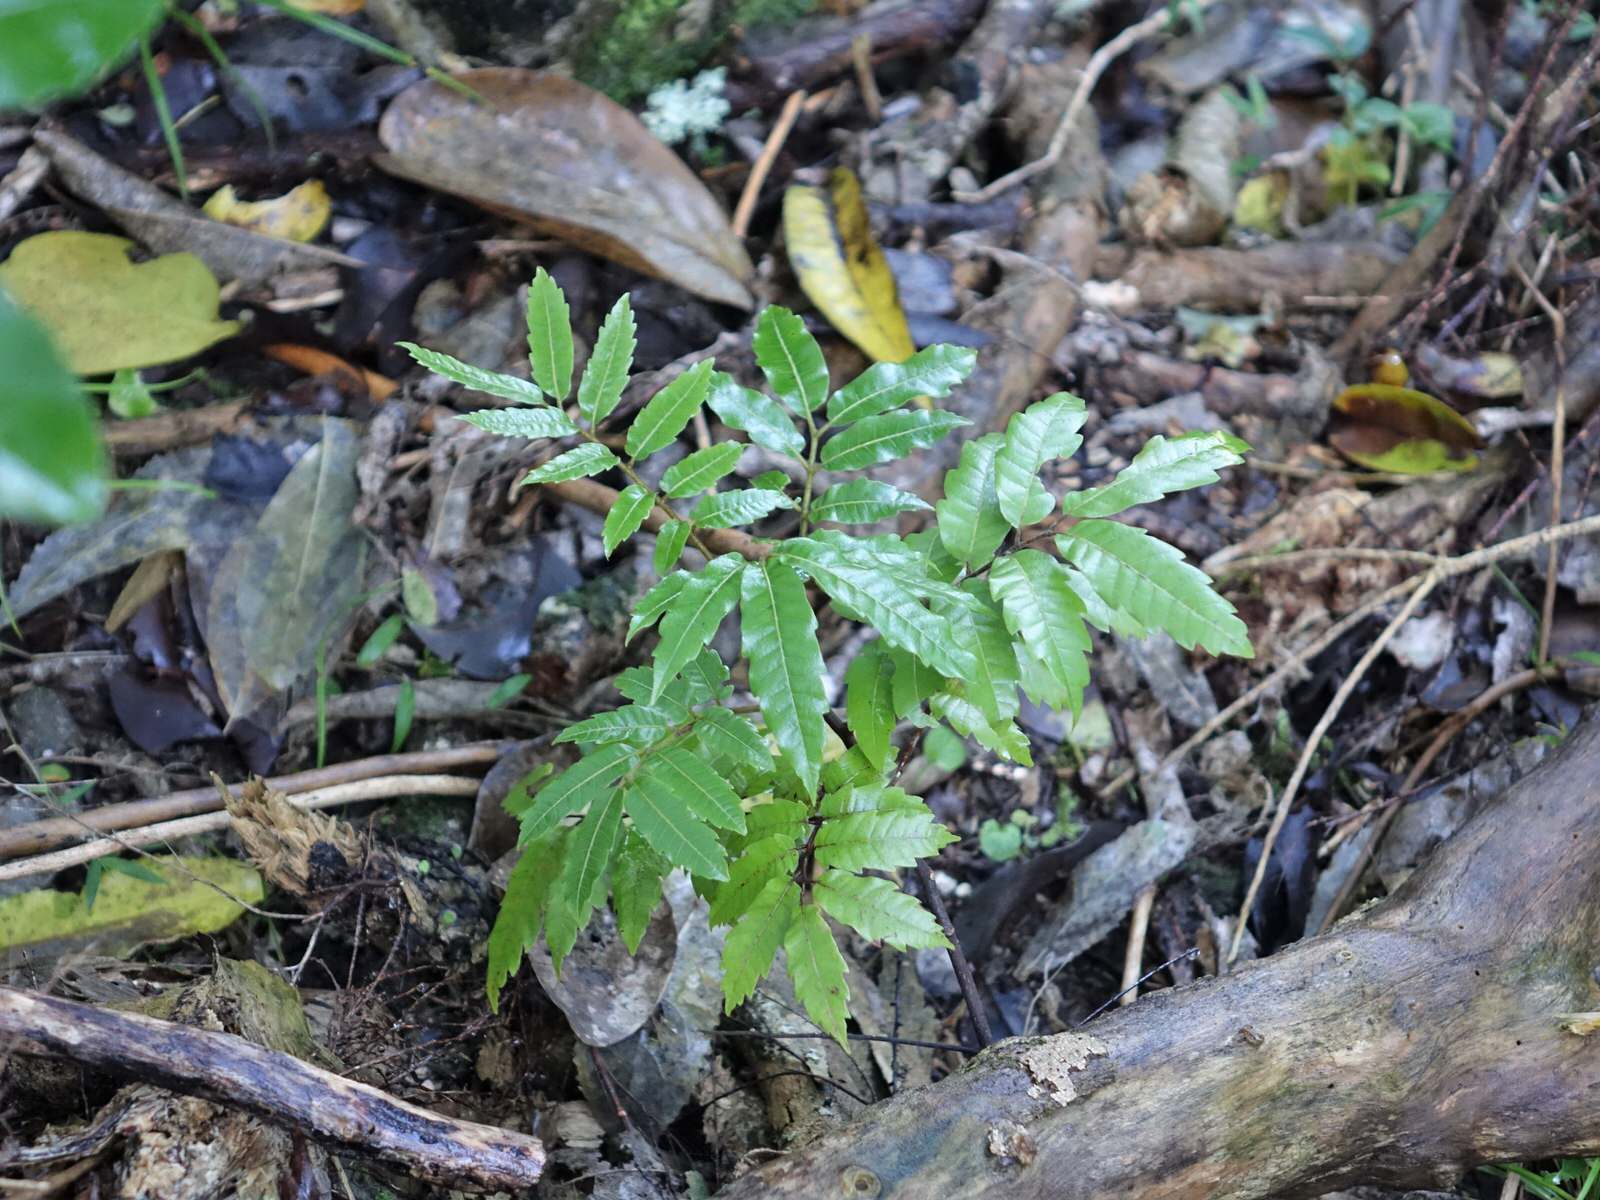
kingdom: Plantae
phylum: Tracheophyta
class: Magnoliopsida
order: Sapindales
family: Sapindaceae
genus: Alectryon
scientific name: Alectryon excelsus
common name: Three kings titoki
